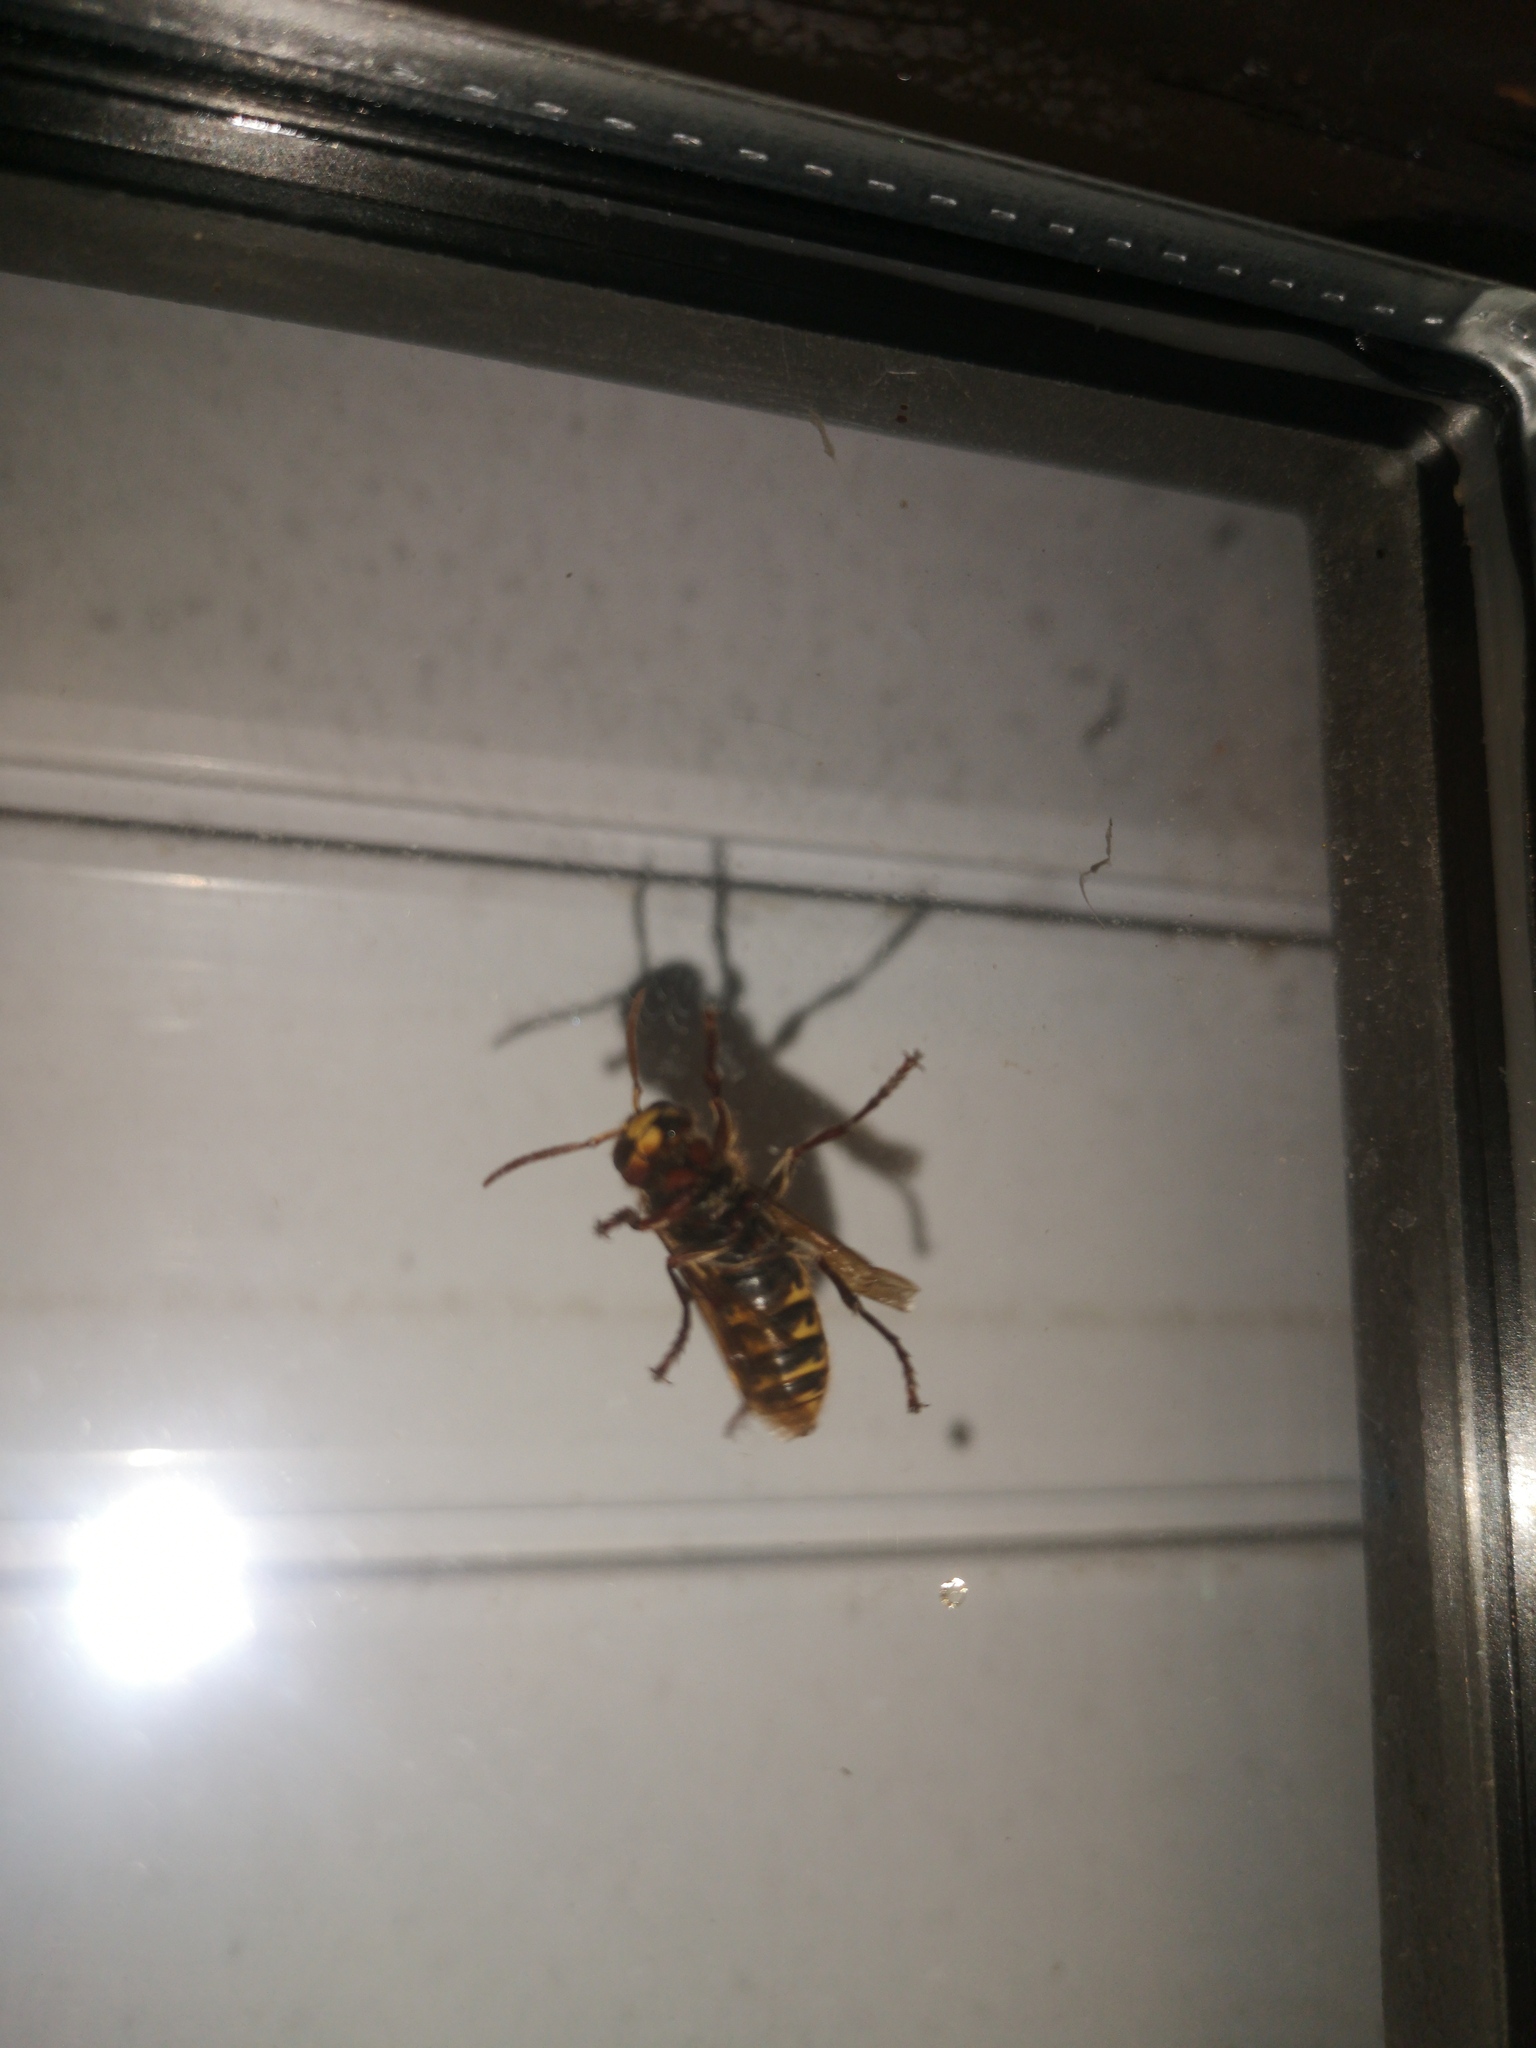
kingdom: Animalia
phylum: Arthropoda
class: Insecta
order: Hymenoptera
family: Vespidae
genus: Vespa
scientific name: Vespa crabro
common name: Hornet
